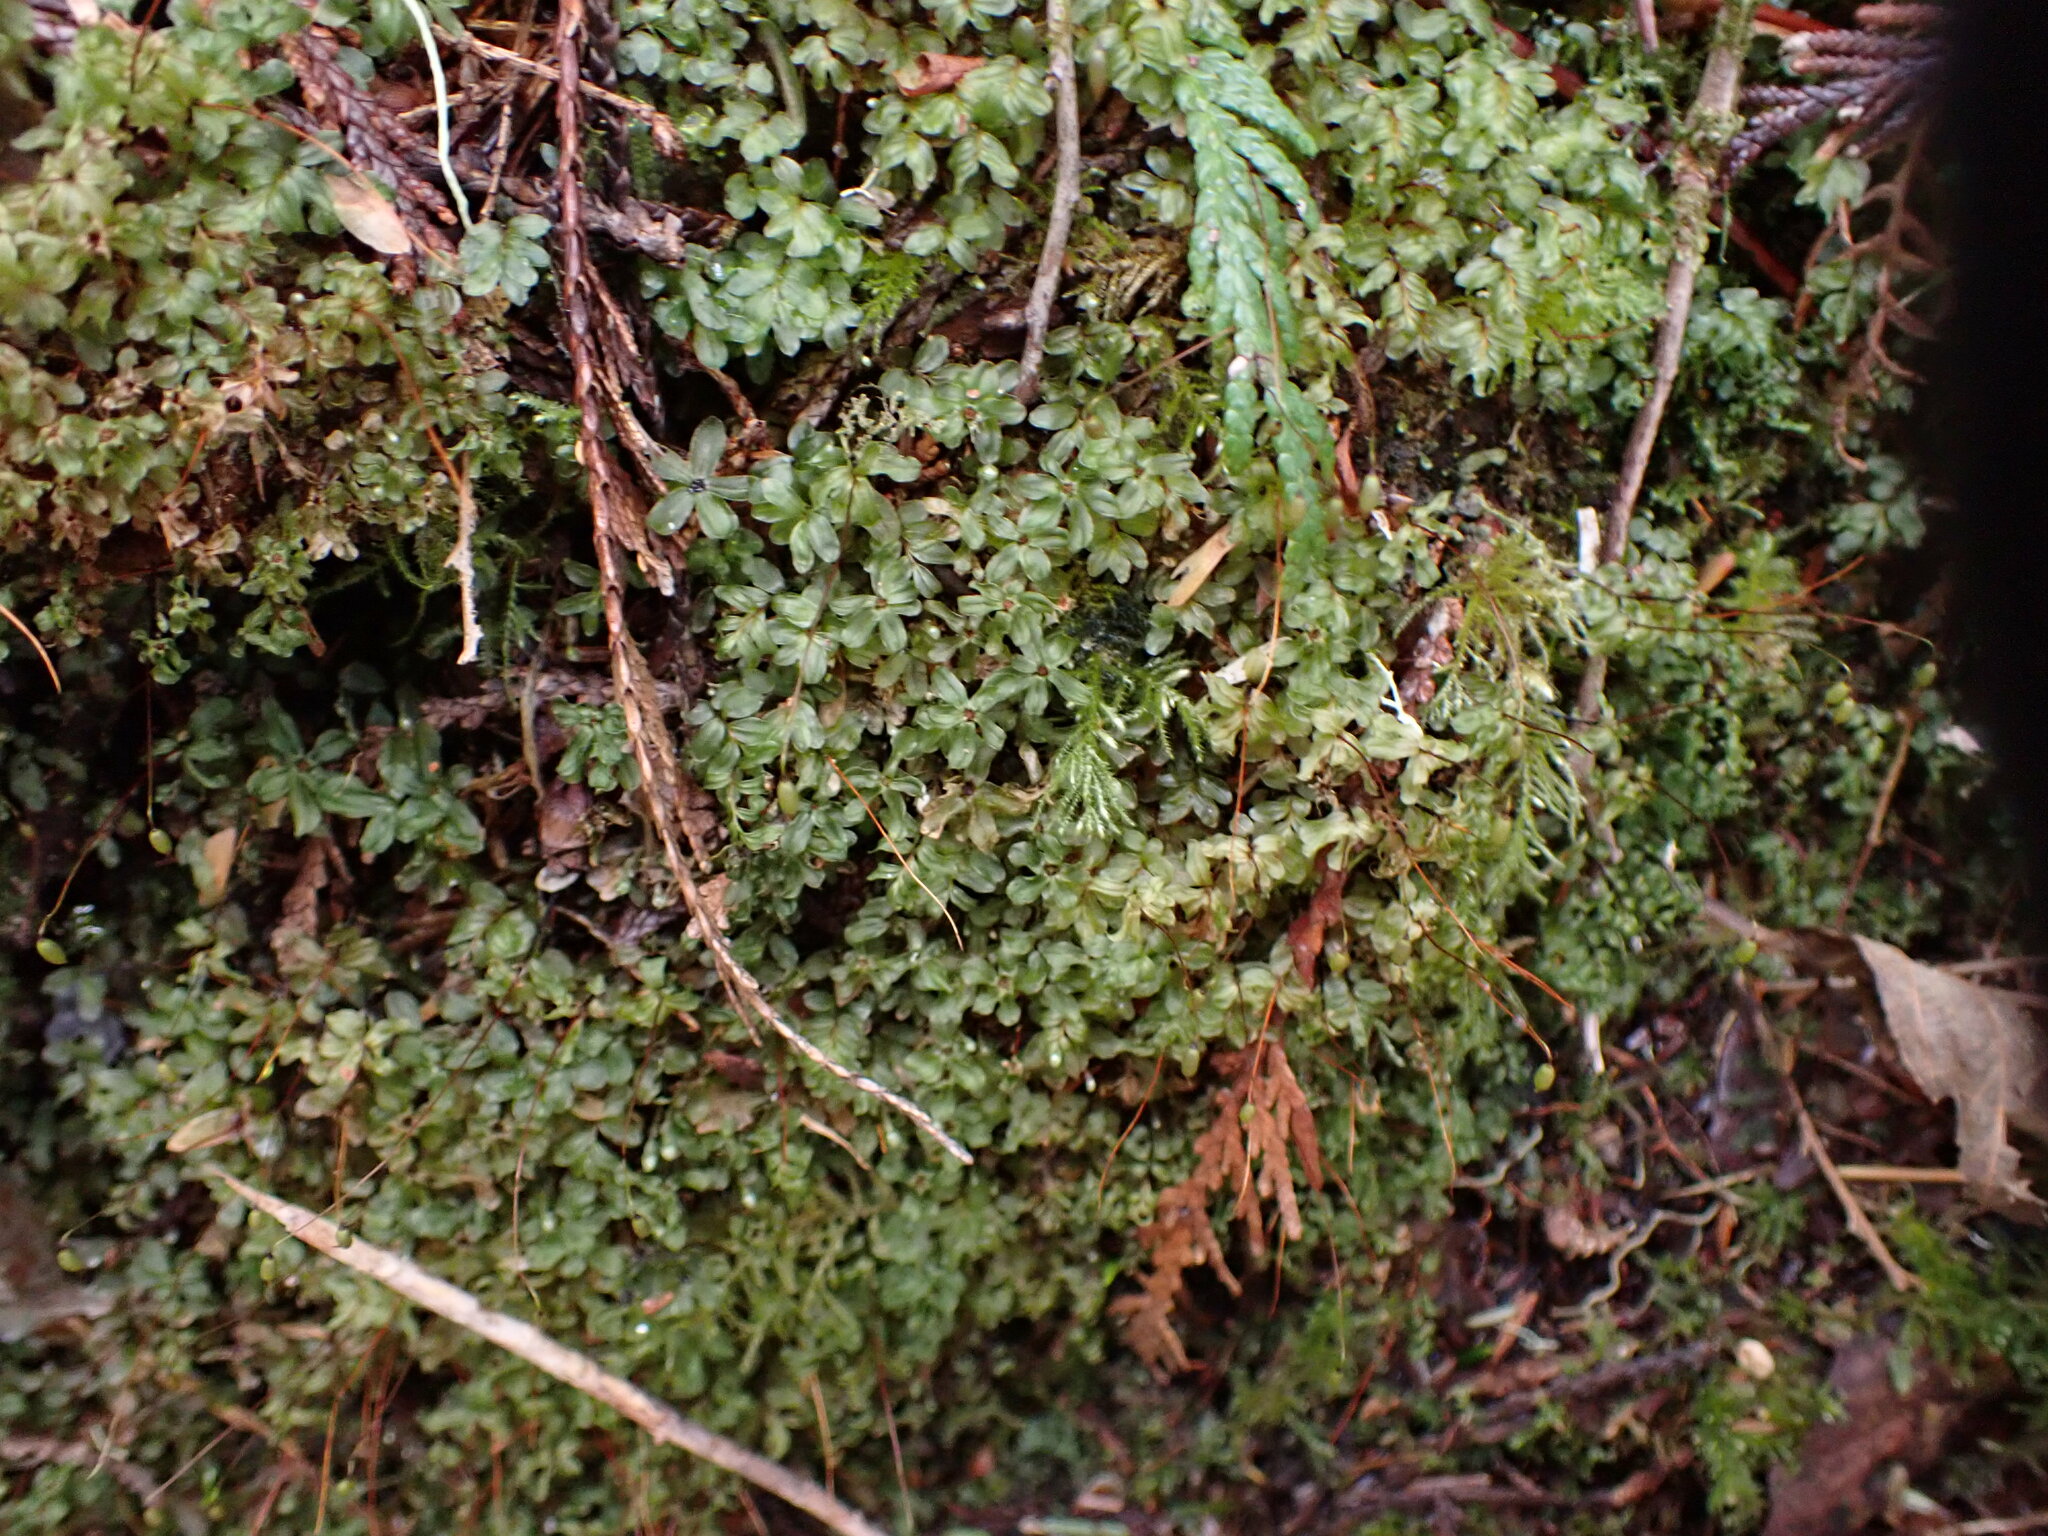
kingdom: Plantae
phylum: Bryophyta
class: Bryopsida
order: Bryales
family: Mniaceae
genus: Rhizomnium
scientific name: Rhizomnium glabrescens
